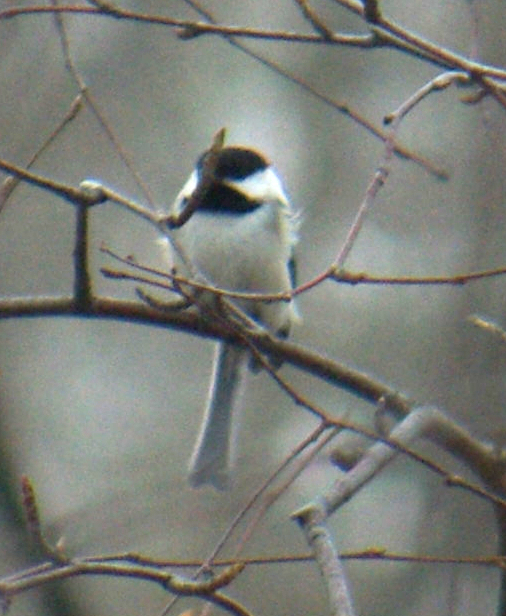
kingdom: Animalia
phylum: Chordata
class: Aves
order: Passeriformes
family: Paridae
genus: Poecile
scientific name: Poecile atricapillus
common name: Black-capped chickadee
